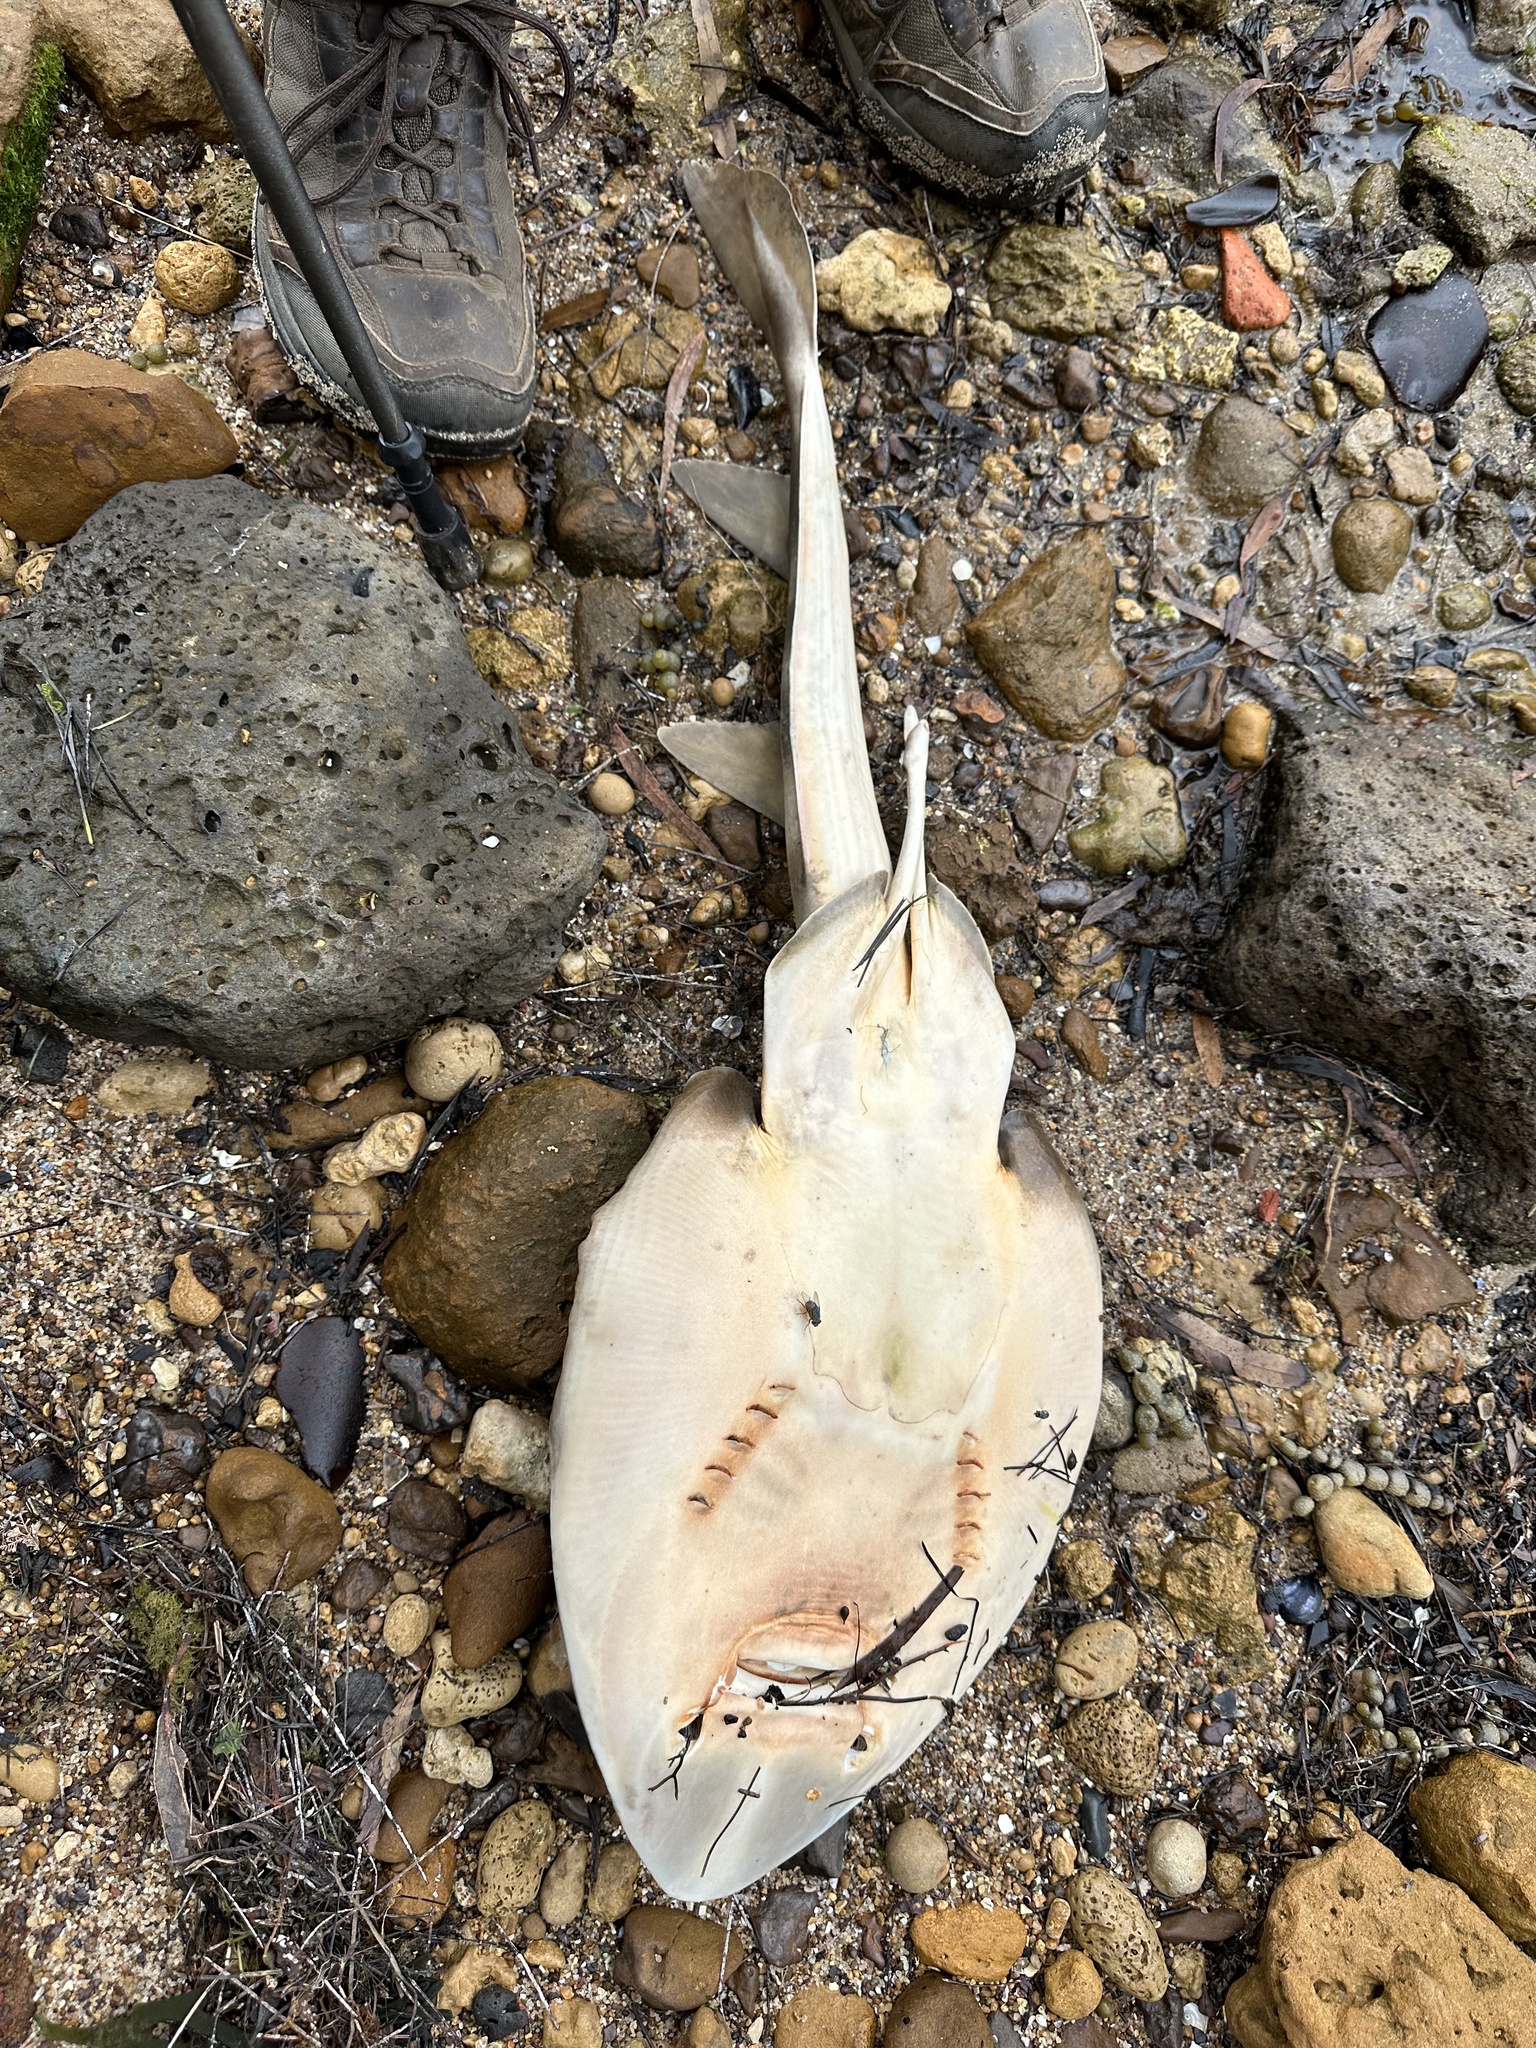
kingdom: Animalia
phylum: Chordata
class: Elasmobranchii
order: Rhinopristiformes
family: Rhinobatidae
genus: Trygonorrhina
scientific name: Trygonorrhina dumerilii
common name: Banjo shark
